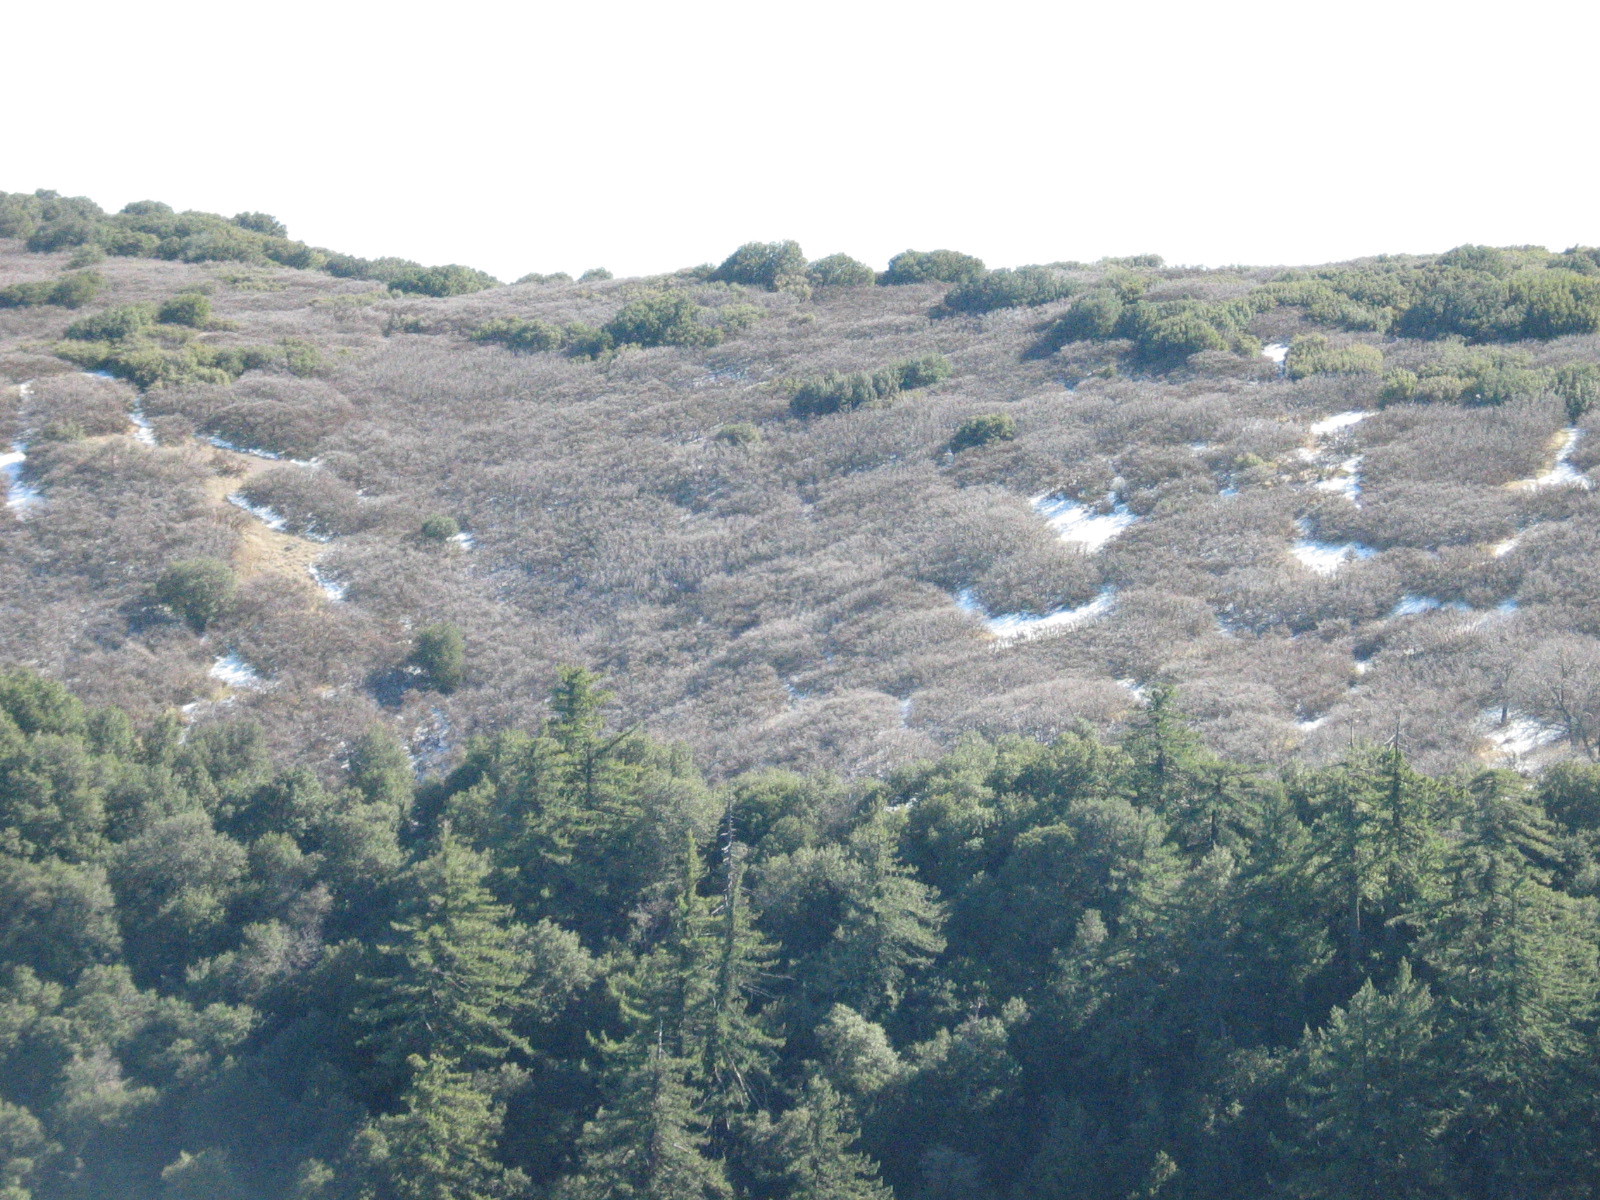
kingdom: Plantae
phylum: Tracheophyta
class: Magnoliopsida
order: Fagales
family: Fagaceae
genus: Quercus
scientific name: Quercus garryana
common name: Garry oak
